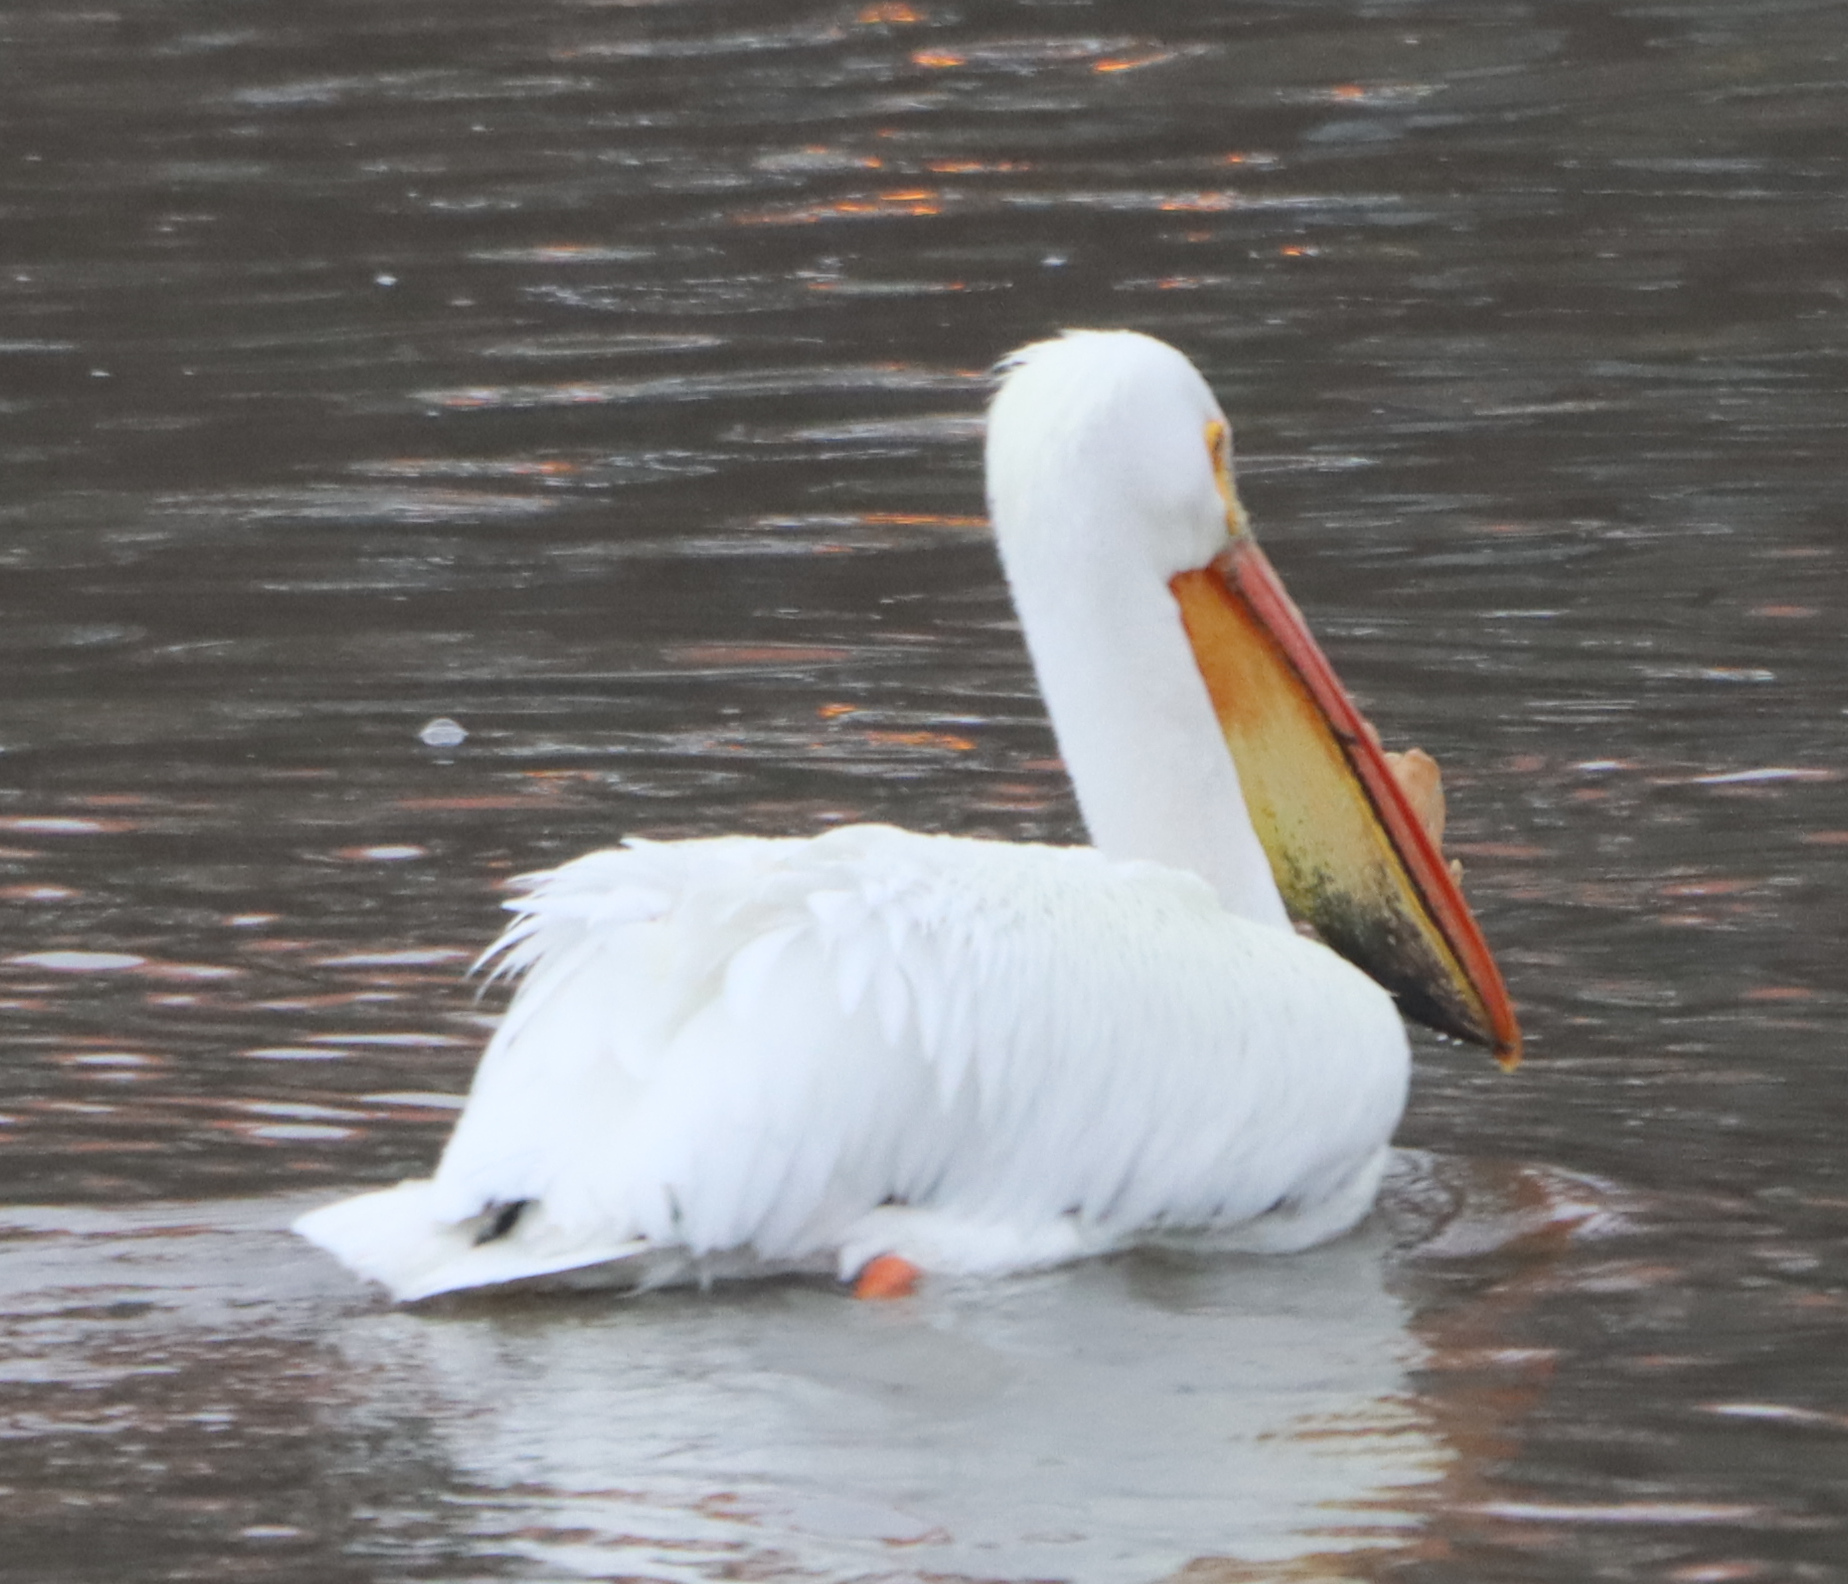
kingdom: Animalia
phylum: Chordata
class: Aves
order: Pelecaniformes
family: Pelecanidae
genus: Pelecanus
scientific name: Pelecanus erythrorhynchos
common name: American white pelican
